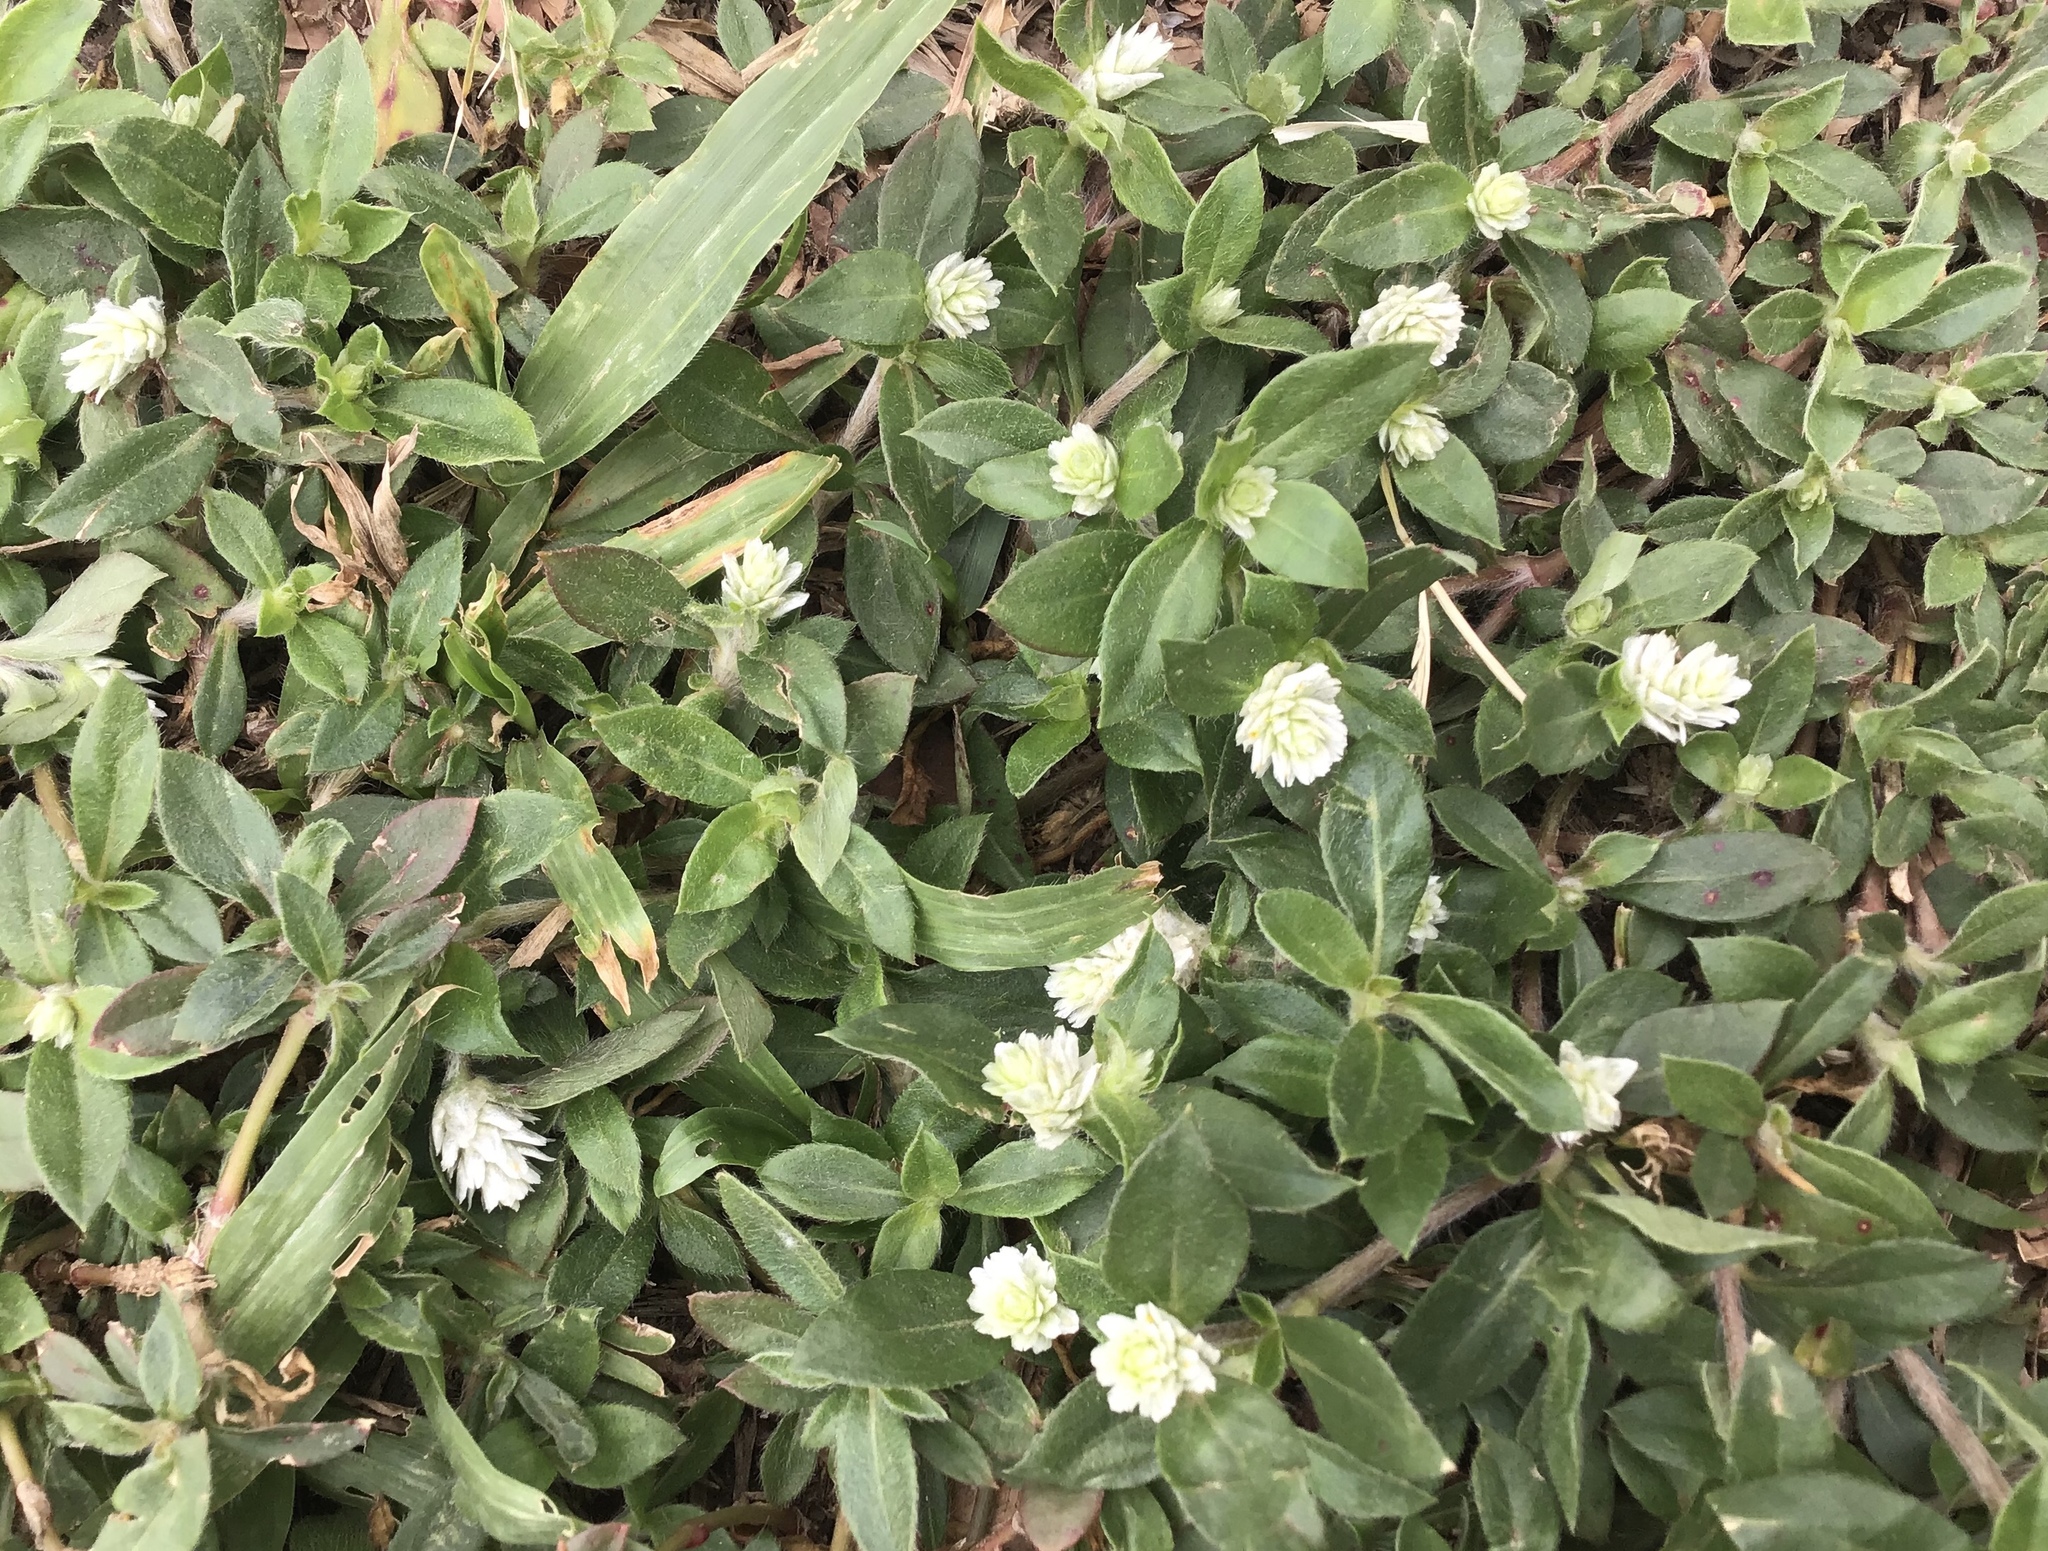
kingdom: Plantae
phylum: Tracheophyta
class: Magnoliopsida
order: Caryophyllales
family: Amaranthaceae
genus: Gomphrena
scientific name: Gomphrena celosioides
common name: Gomphrena-weed
